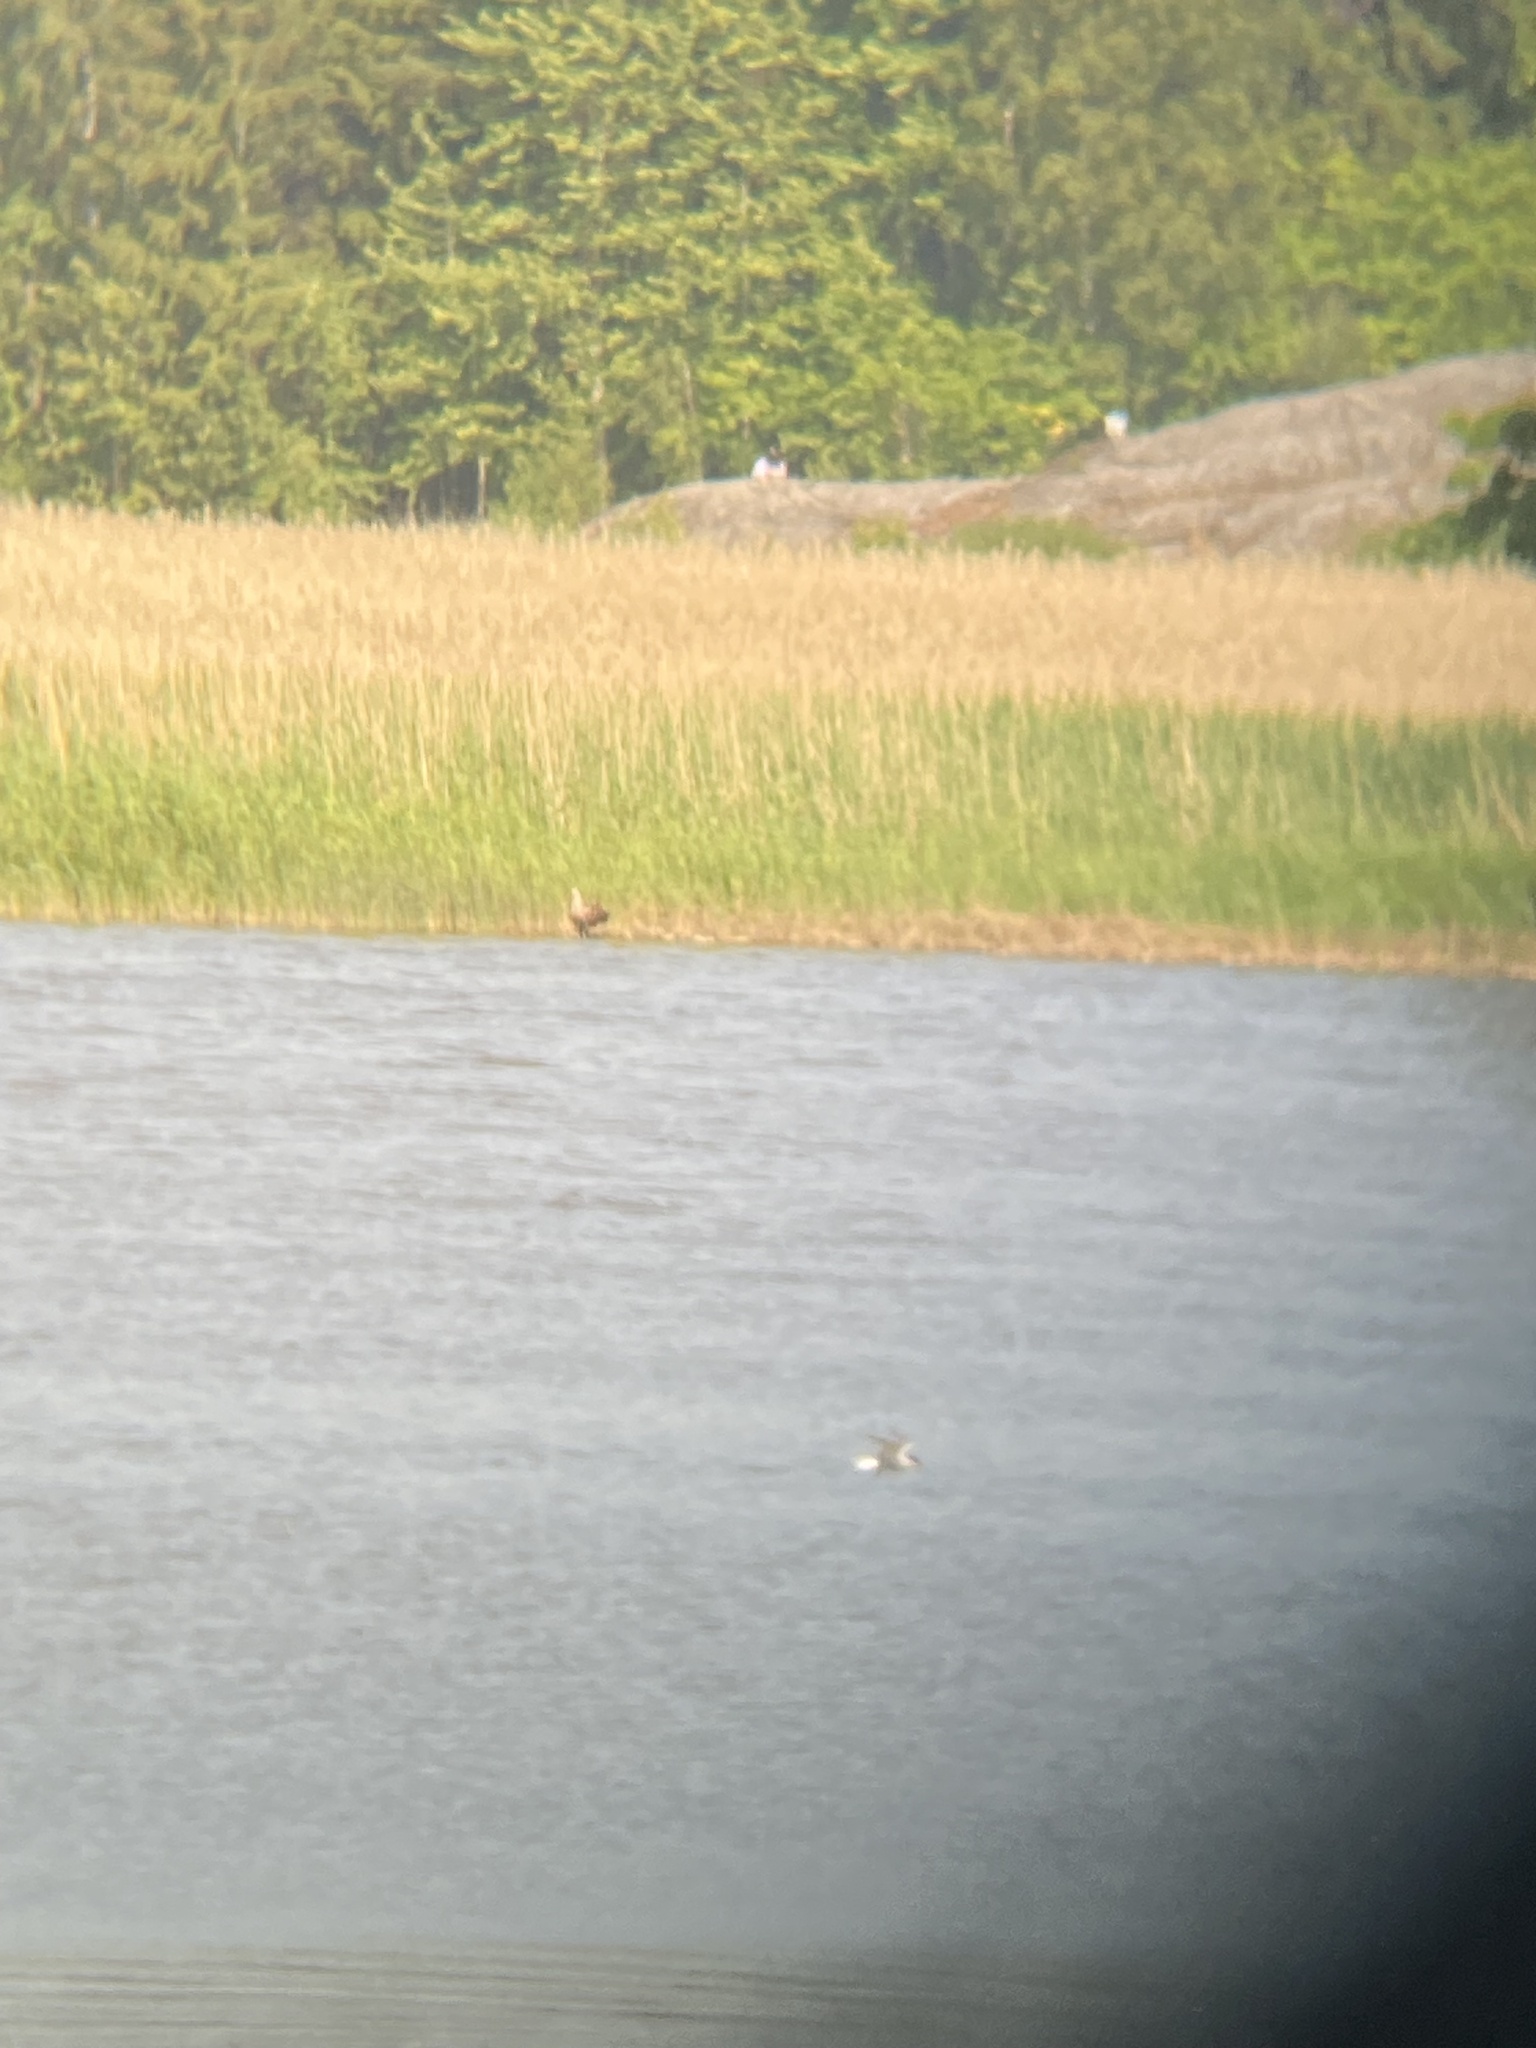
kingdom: Animalia
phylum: Chordata
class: Aves
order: Accipitriformes
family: Accipitridae
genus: Haliaeetus
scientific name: Haliaeetus albicilla
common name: White-tailed eagle
